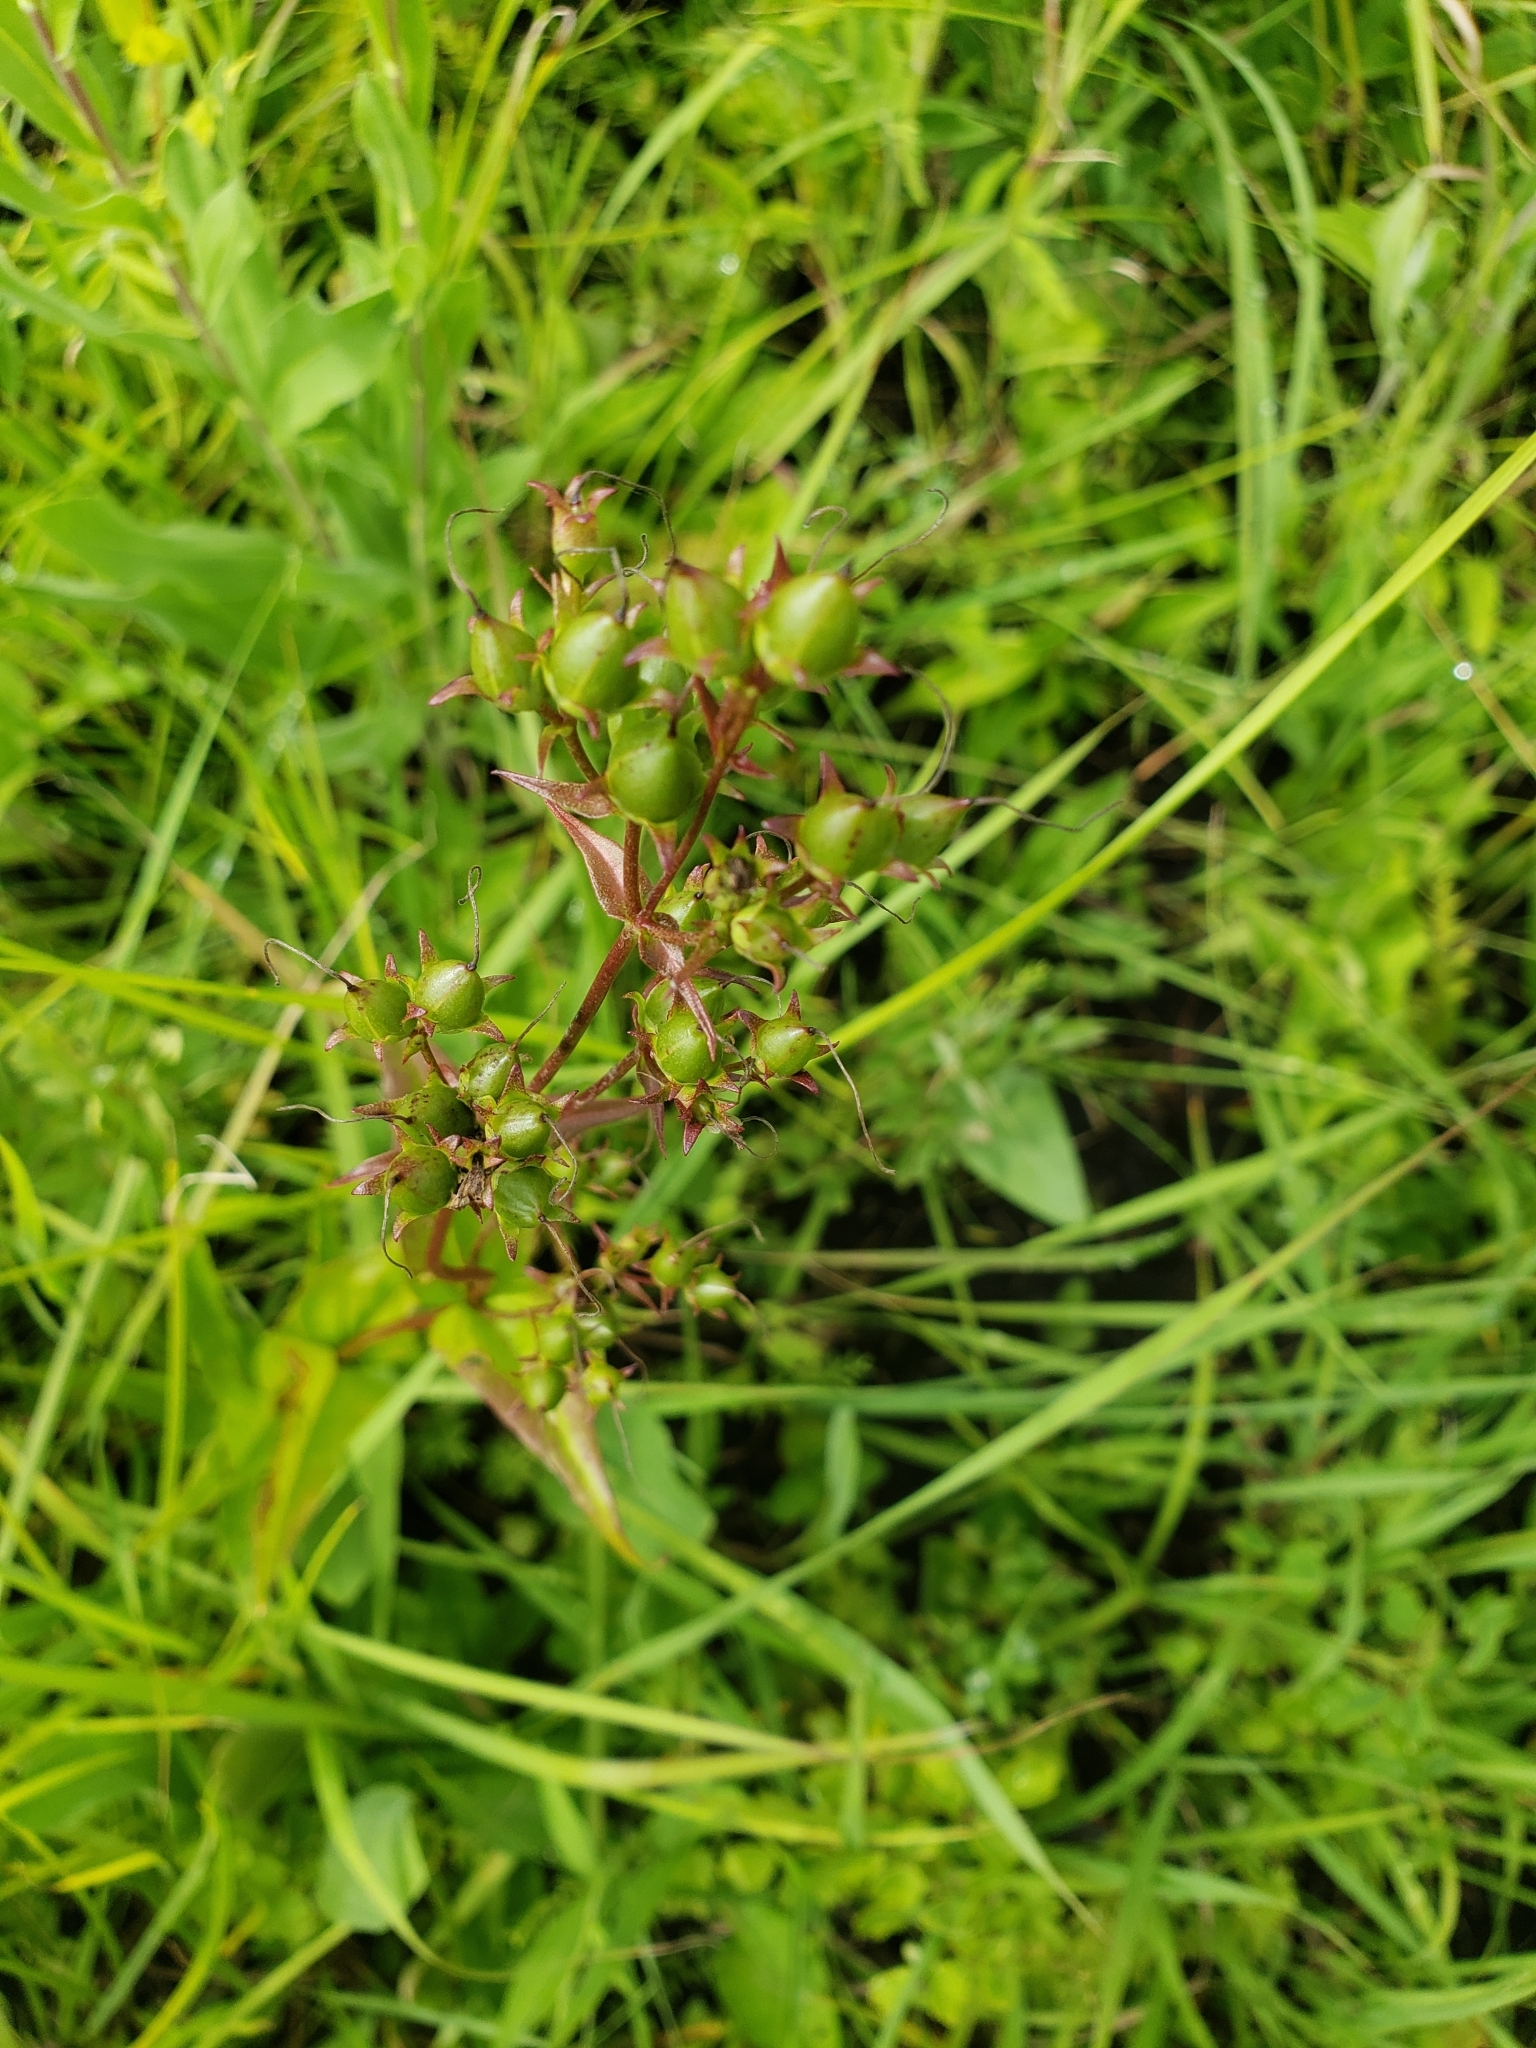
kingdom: Plantae
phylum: Tracheophyta
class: Magnoliopsida
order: Lamiales
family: Plantaginaceae
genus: Penstemon
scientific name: Penstemon digitalis
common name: Foxglove beardtongue
